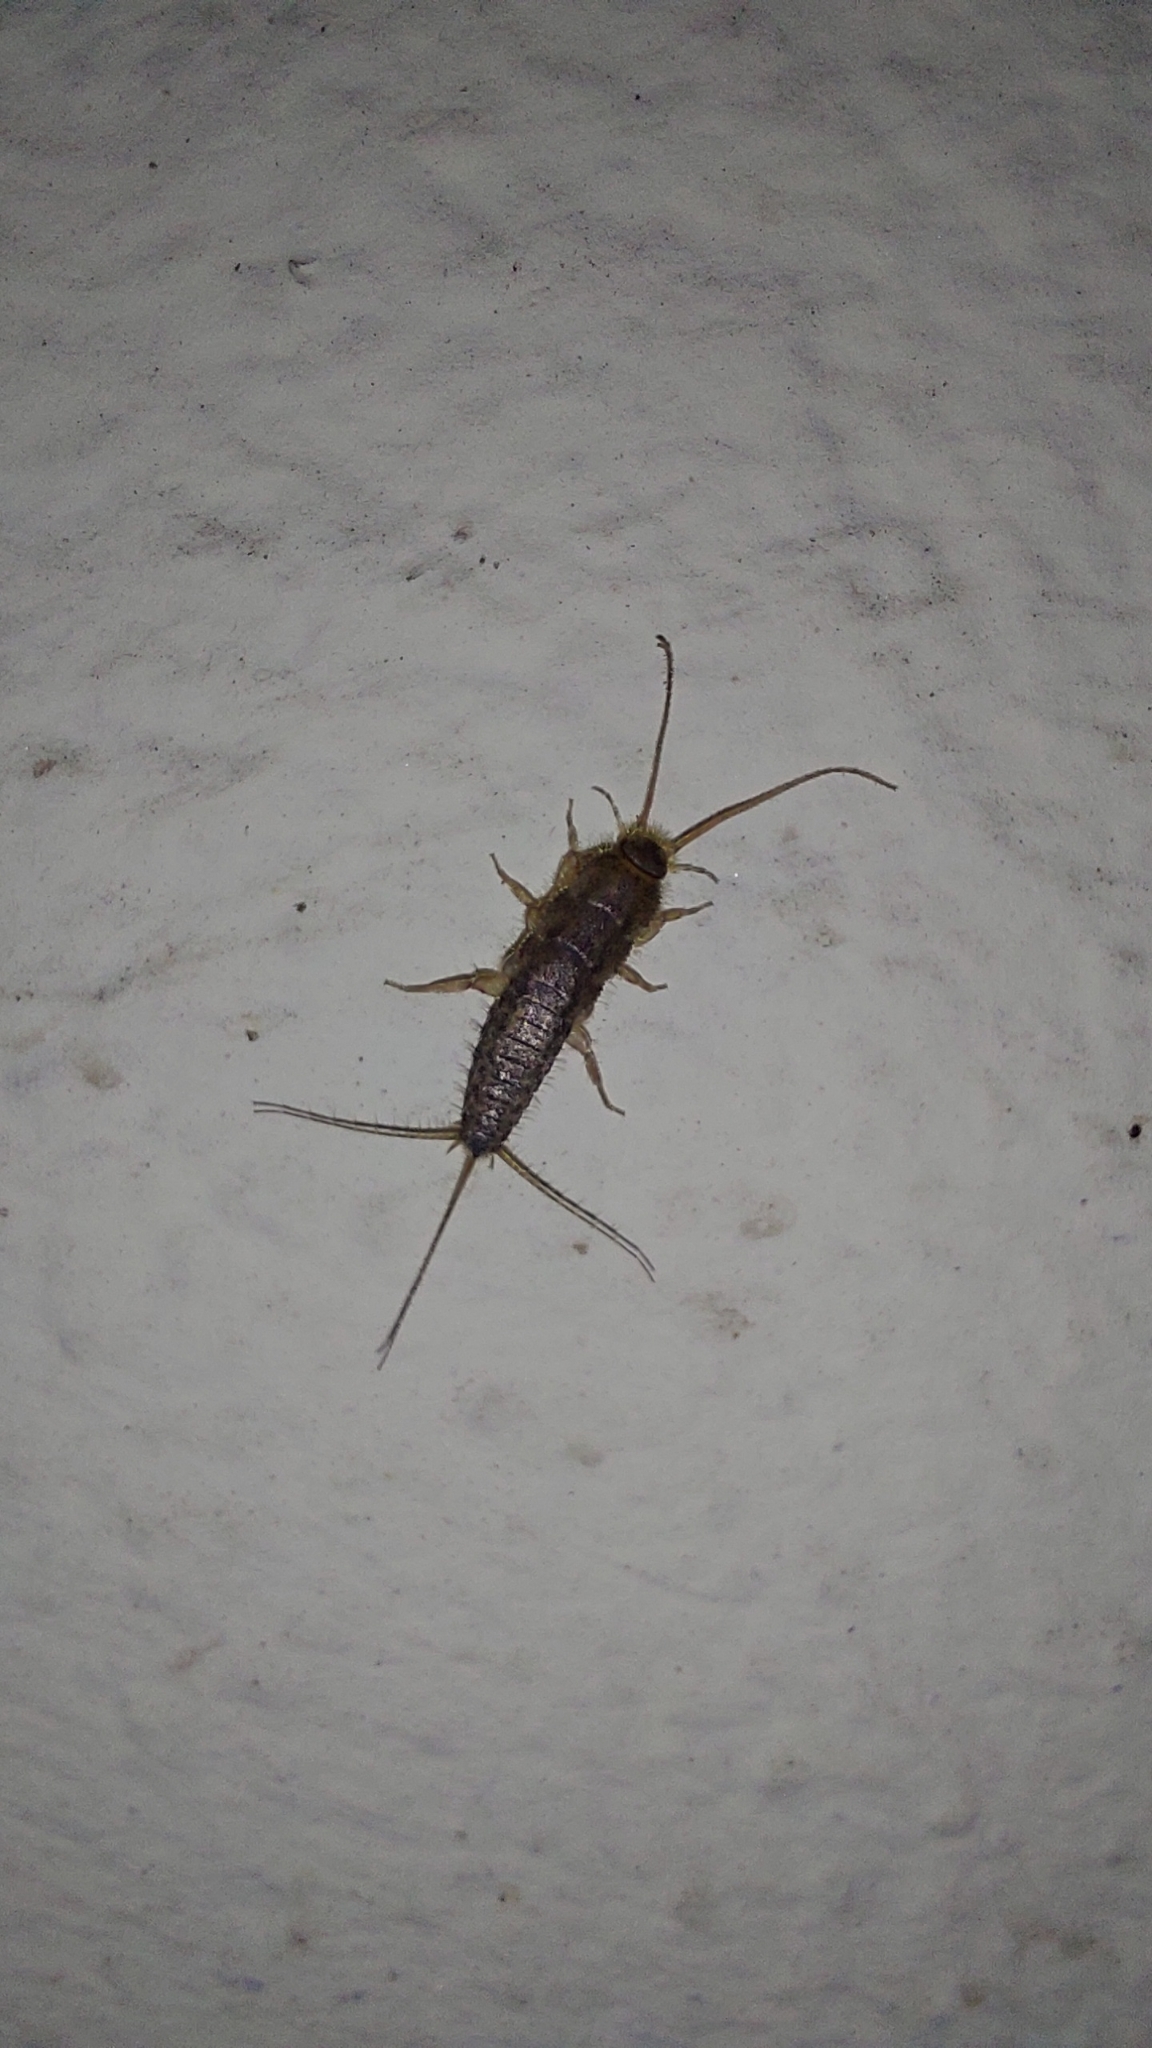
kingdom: Animalia
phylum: Arthropoda
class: Insecta
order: Zygentoma
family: Lepismatidae
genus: Ctenolepisma
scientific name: Ctenolepisma lineata
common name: Four-lined silverfish
